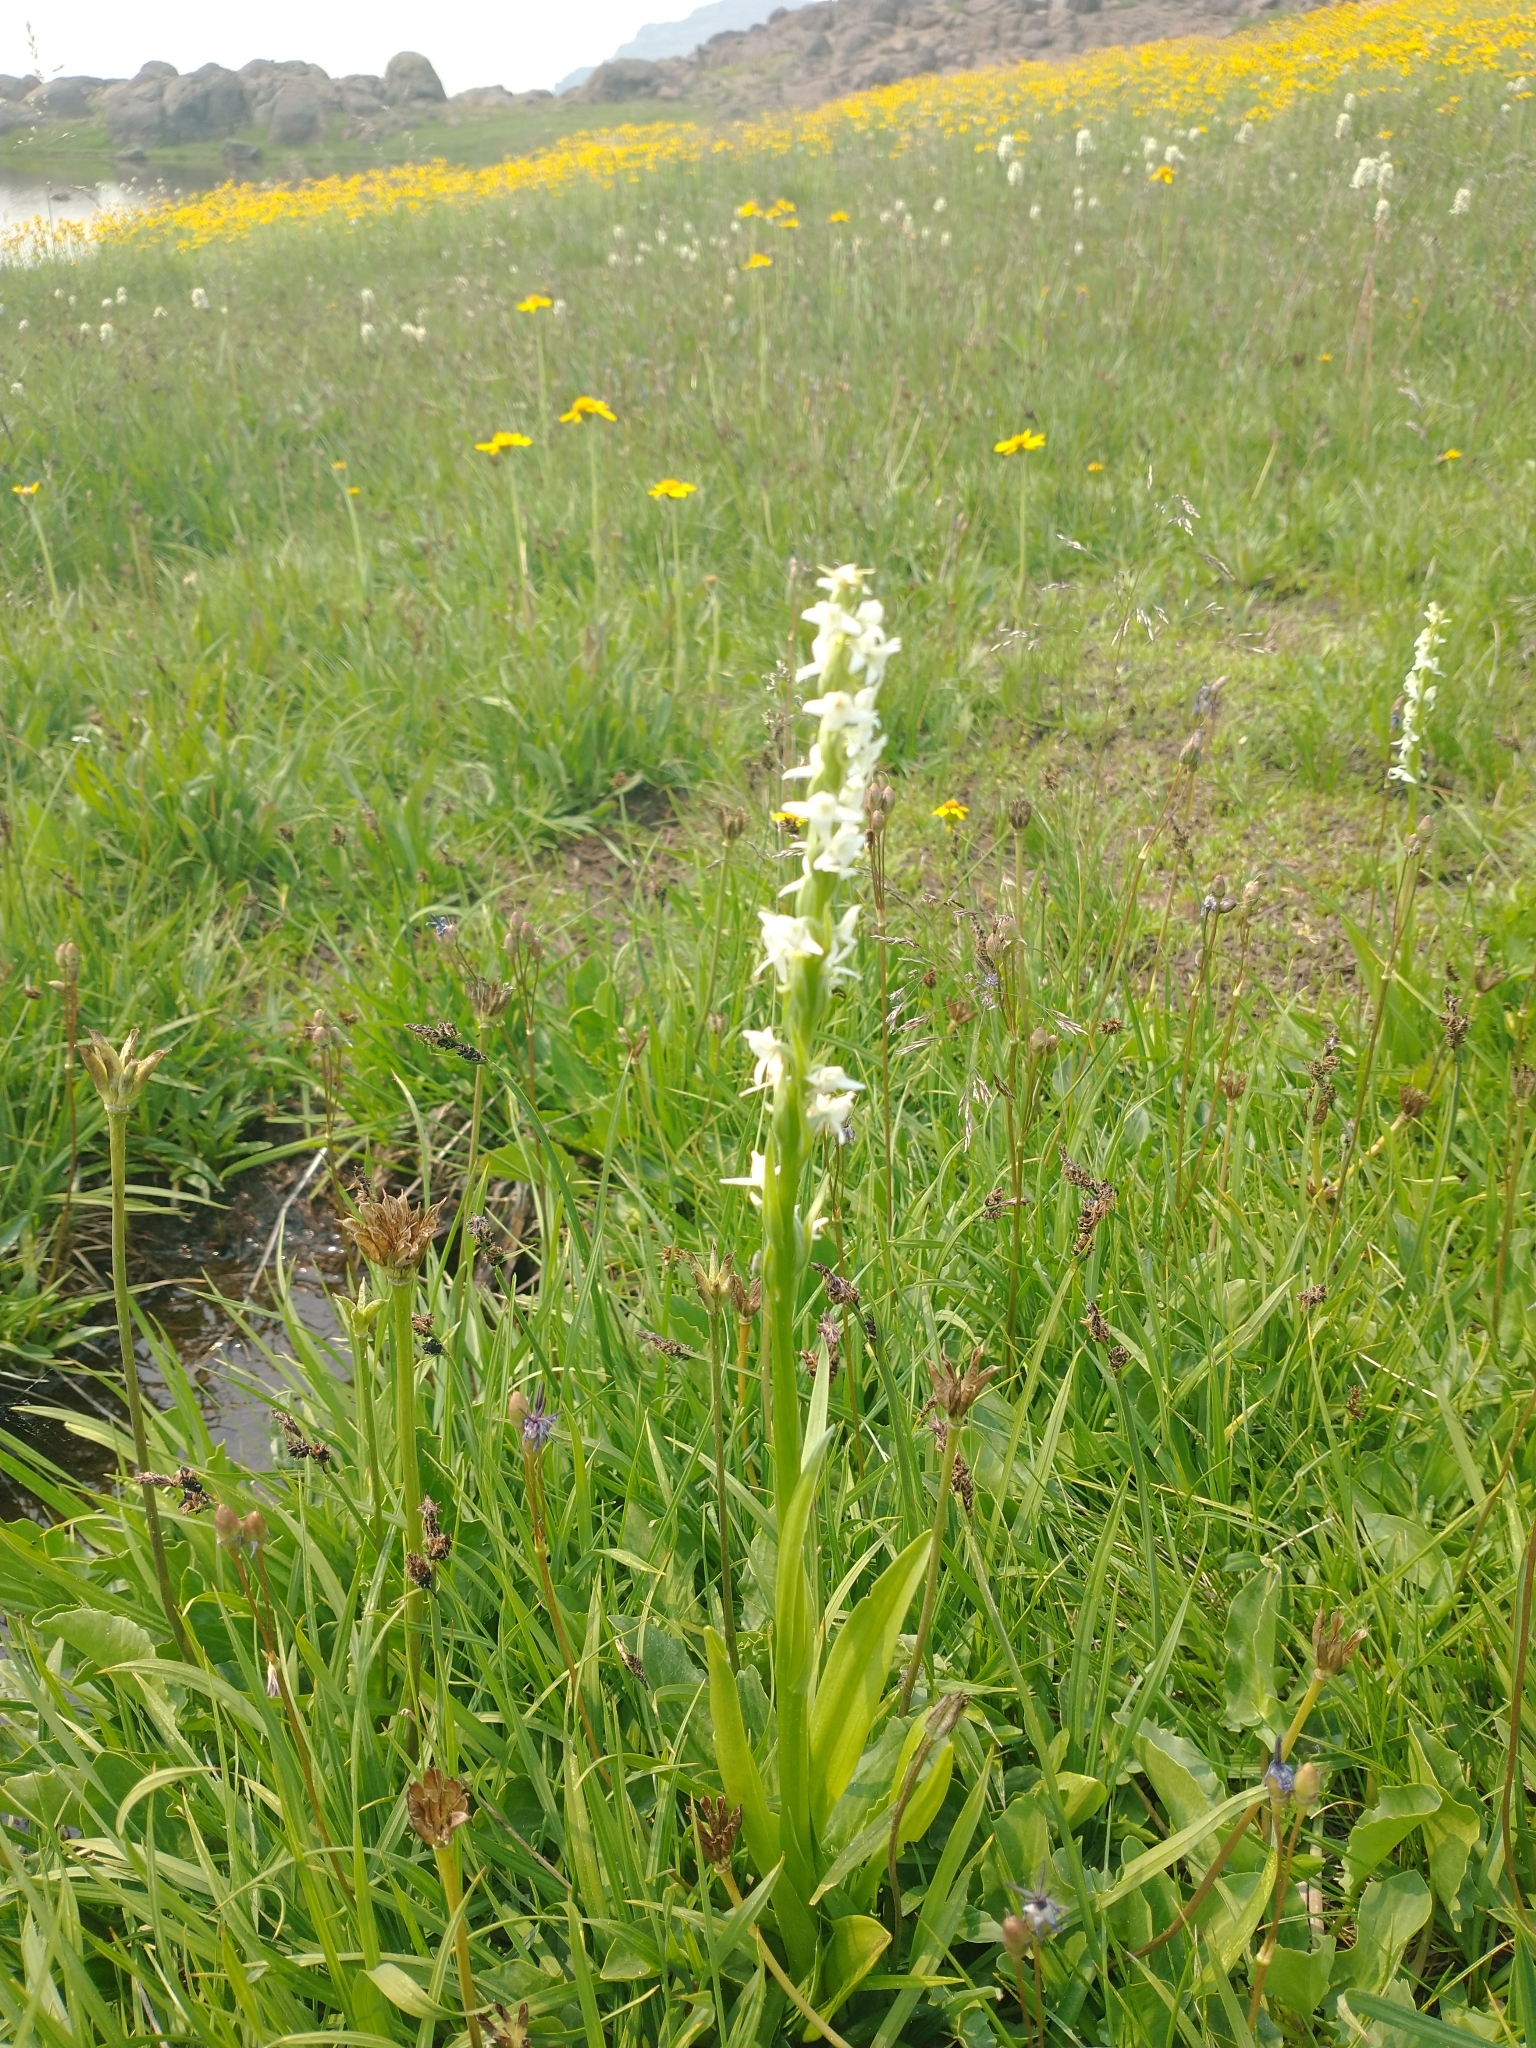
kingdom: Plantae
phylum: Tracheophyta
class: Liliopsida
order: Asparagales
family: Orchidaceae
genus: Platanthera
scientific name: Platanthera dilatata
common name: Bog candles
